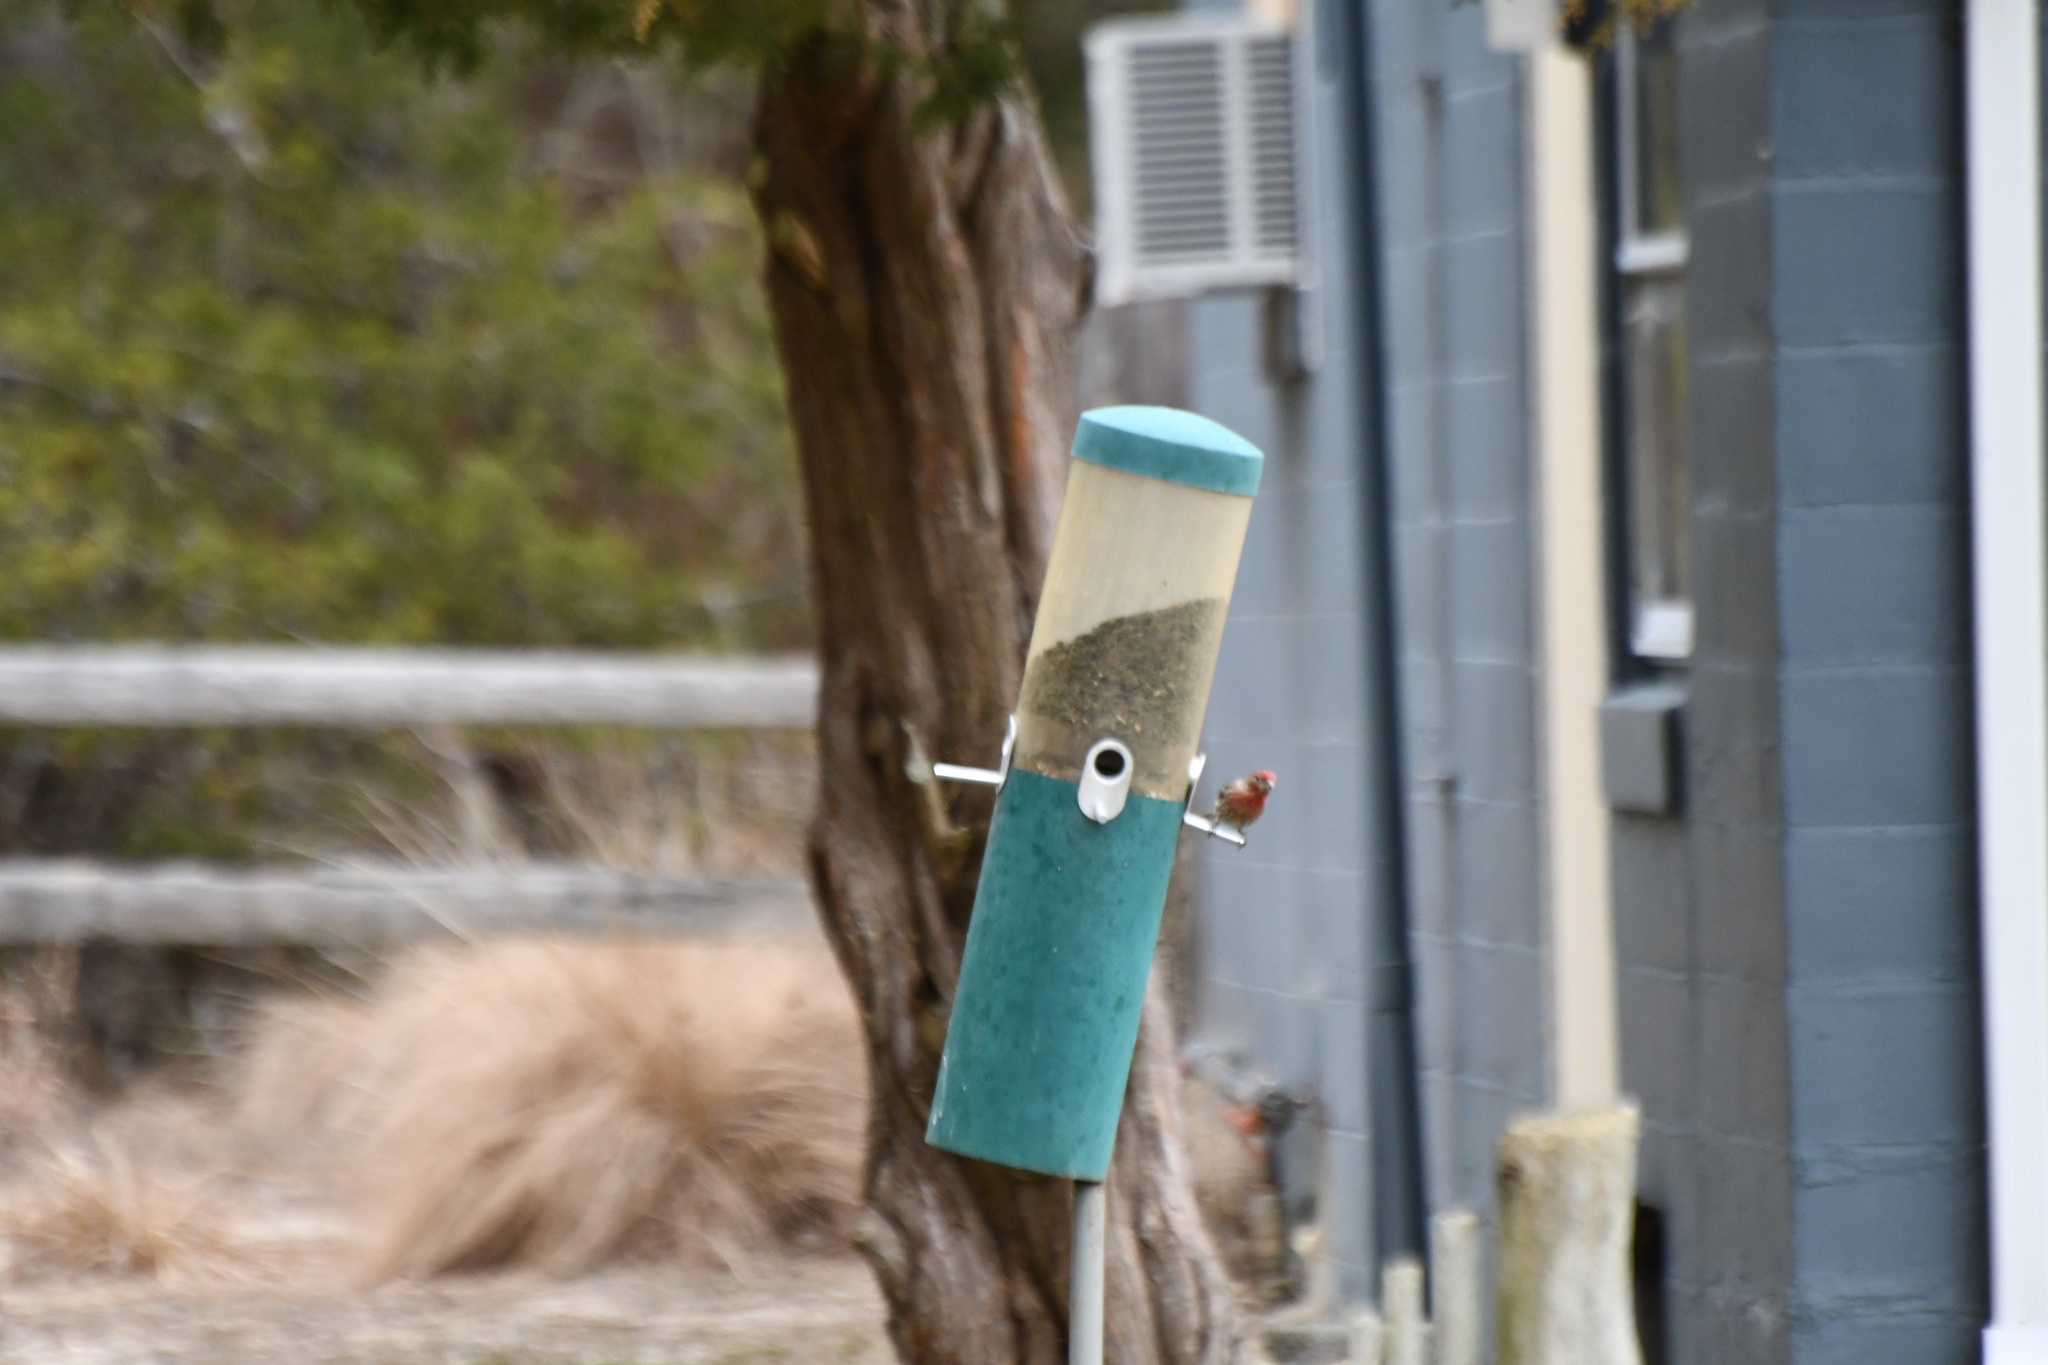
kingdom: Animalia
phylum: Chordata
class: Aves
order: Passeriformes
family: Fringillidae
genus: Haemorhous
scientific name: Haemorhous mexicanus
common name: House finch
